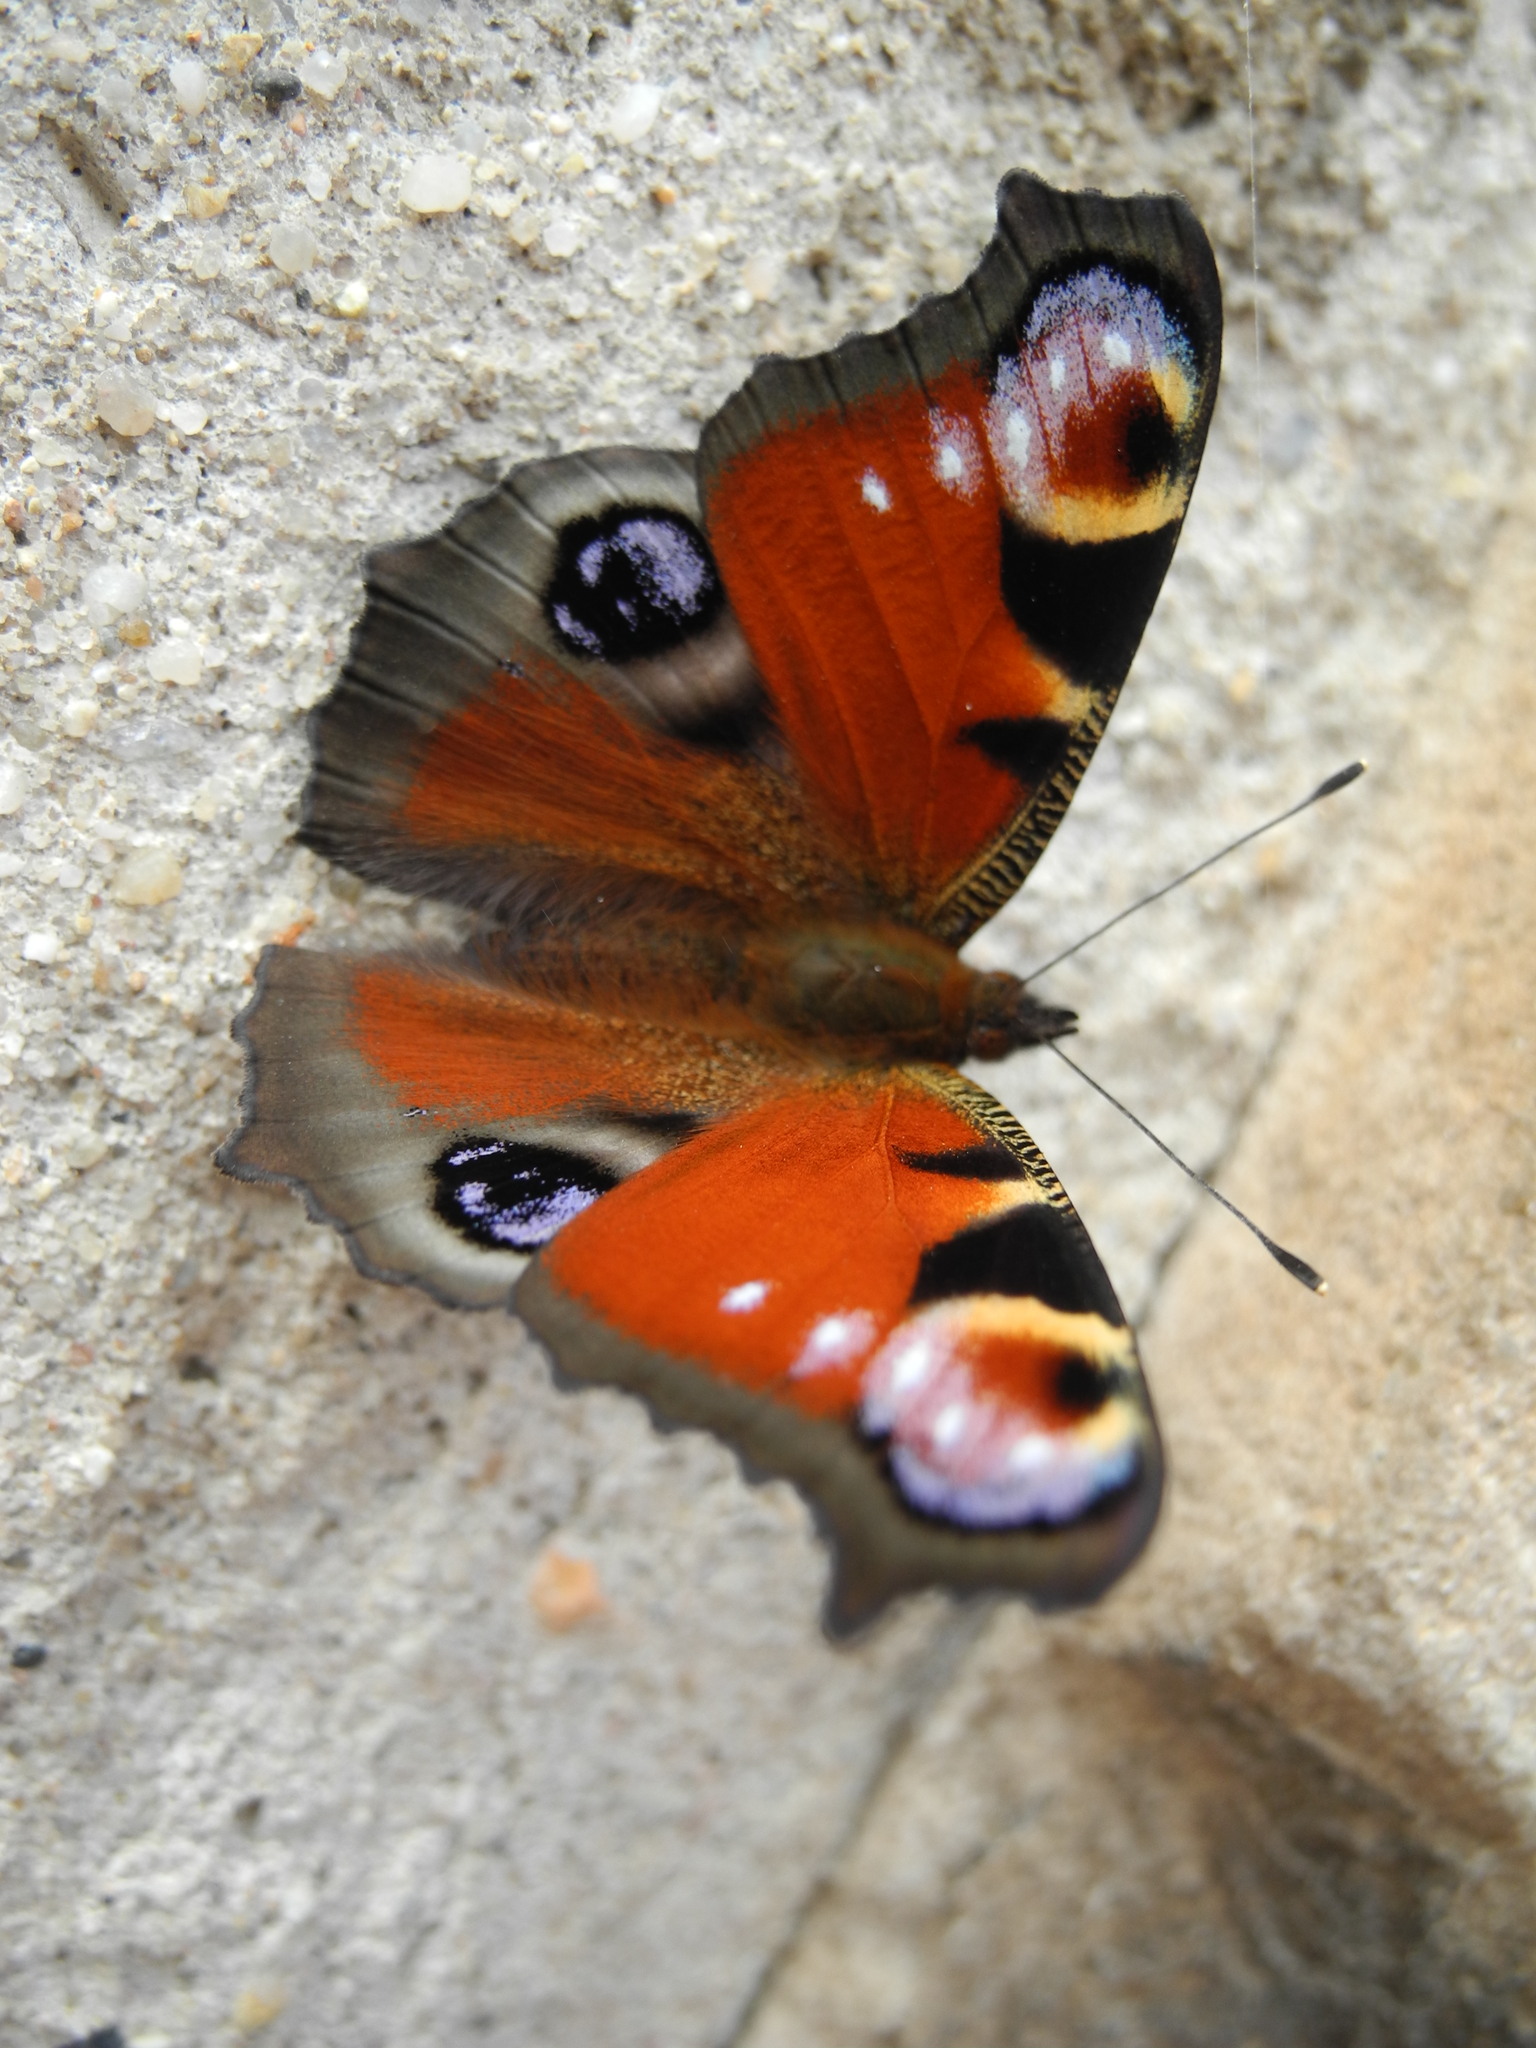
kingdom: Animalia
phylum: Arthropoda
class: Insecta
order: Lepidoptera
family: Nymphalidae
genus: Aglais
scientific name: Aglais io
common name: Peacock
